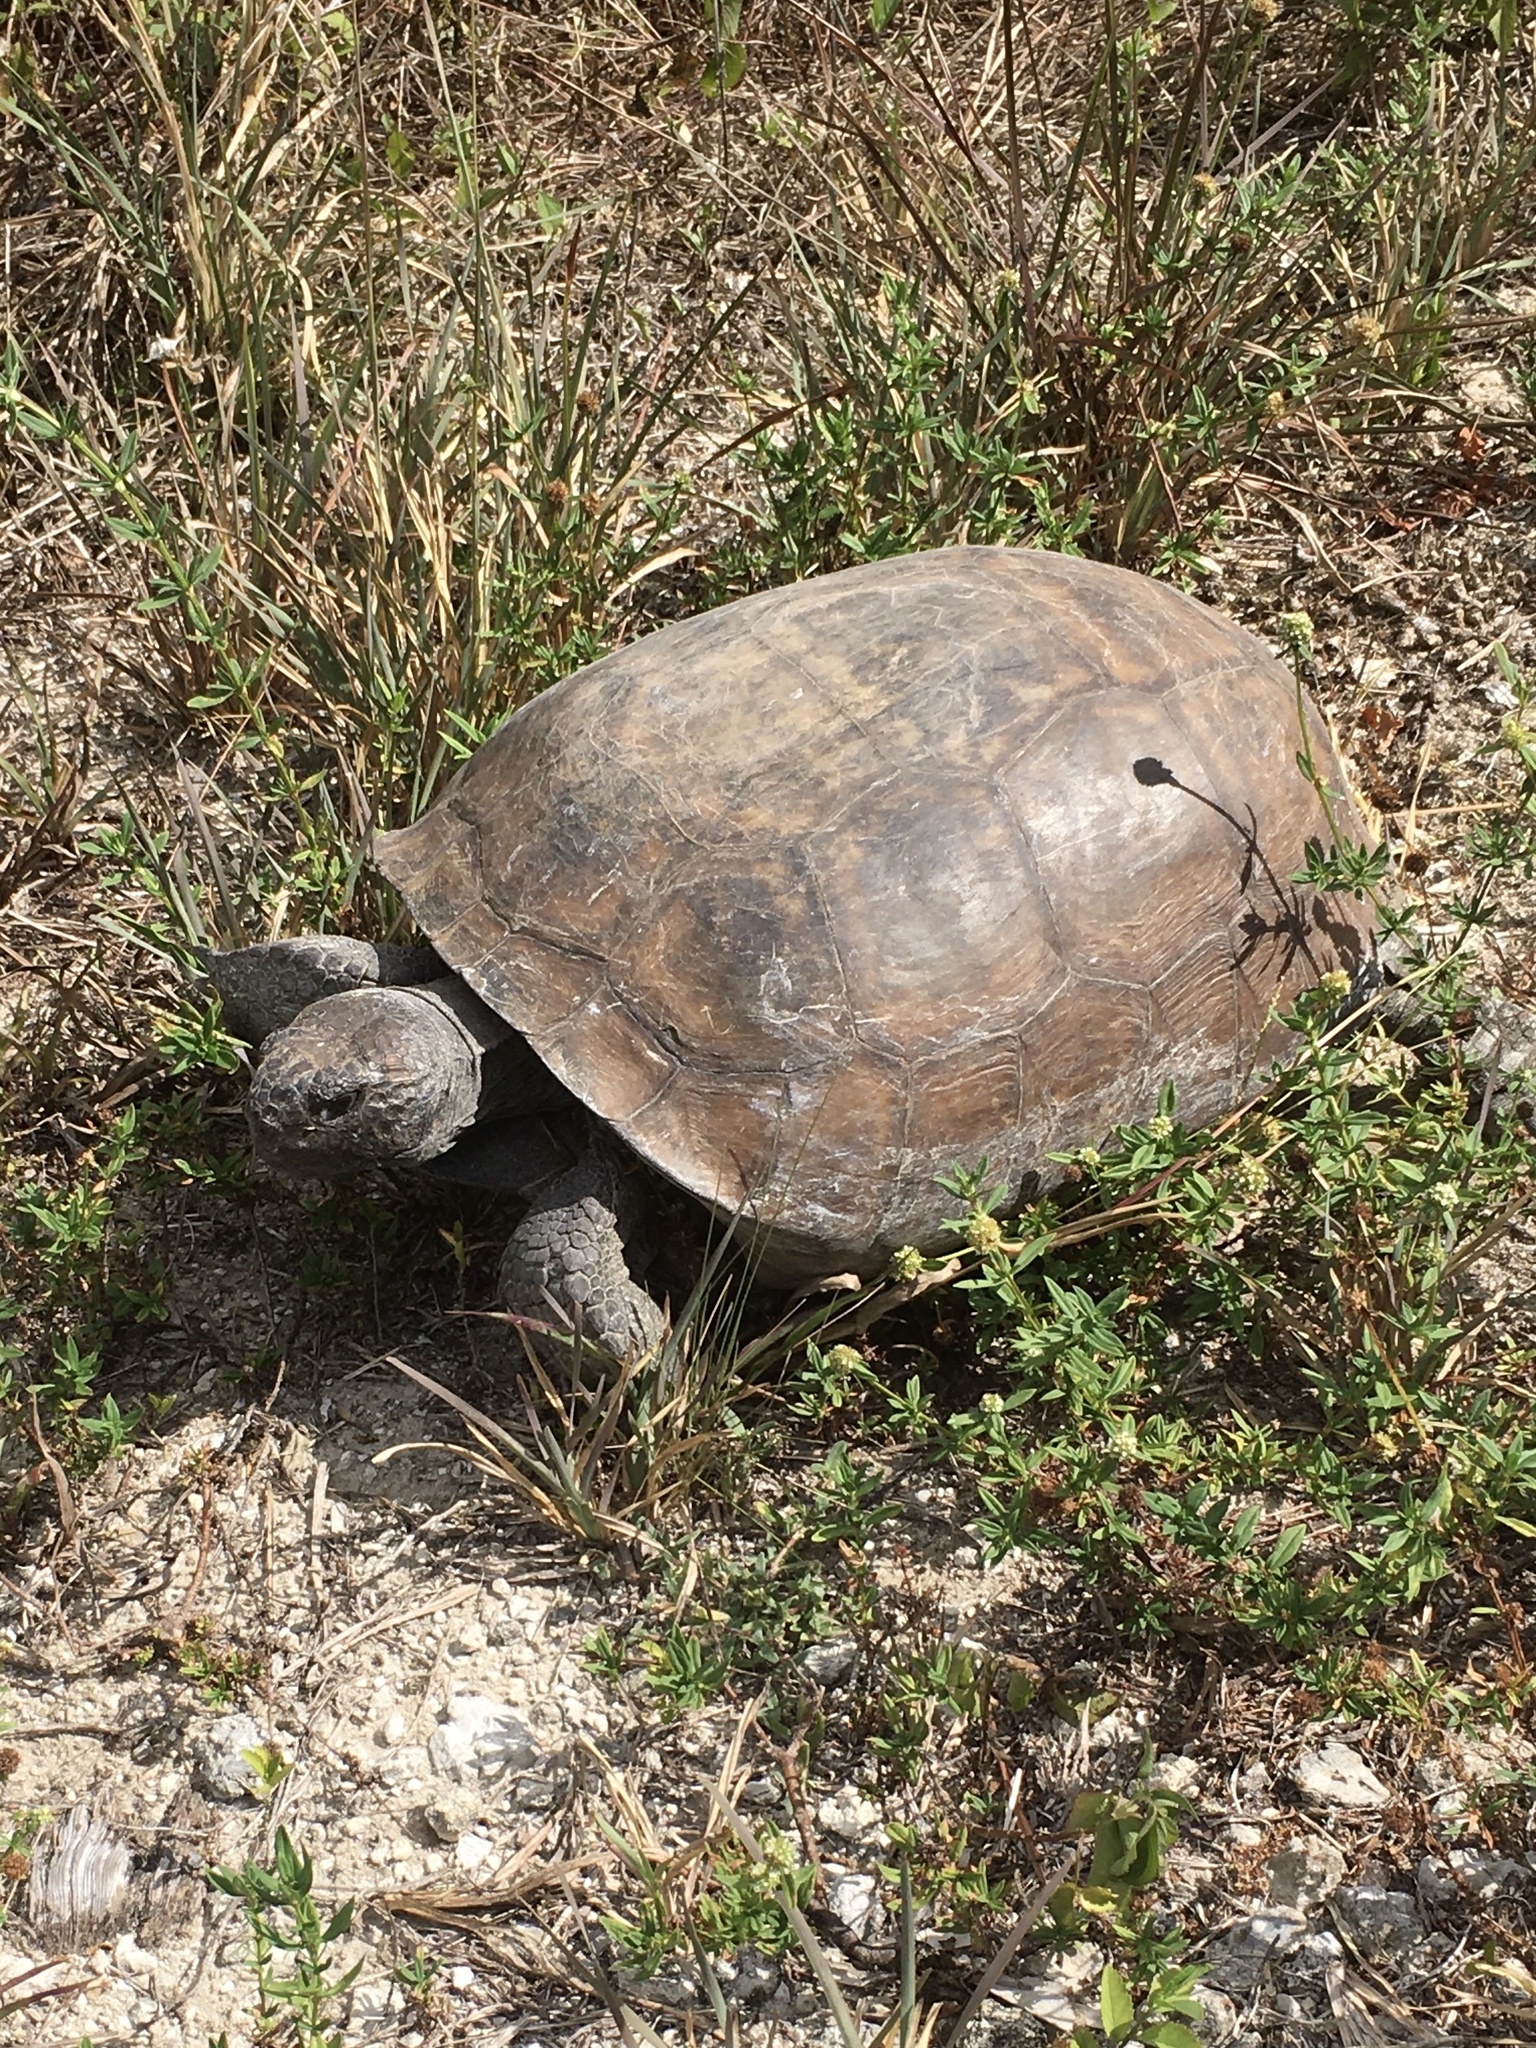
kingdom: Animalia
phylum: Chordata
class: Testudines
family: Testudinidae
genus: Gopherus
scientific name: Gopherus polyphemus
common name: Florida gopher tortoise
